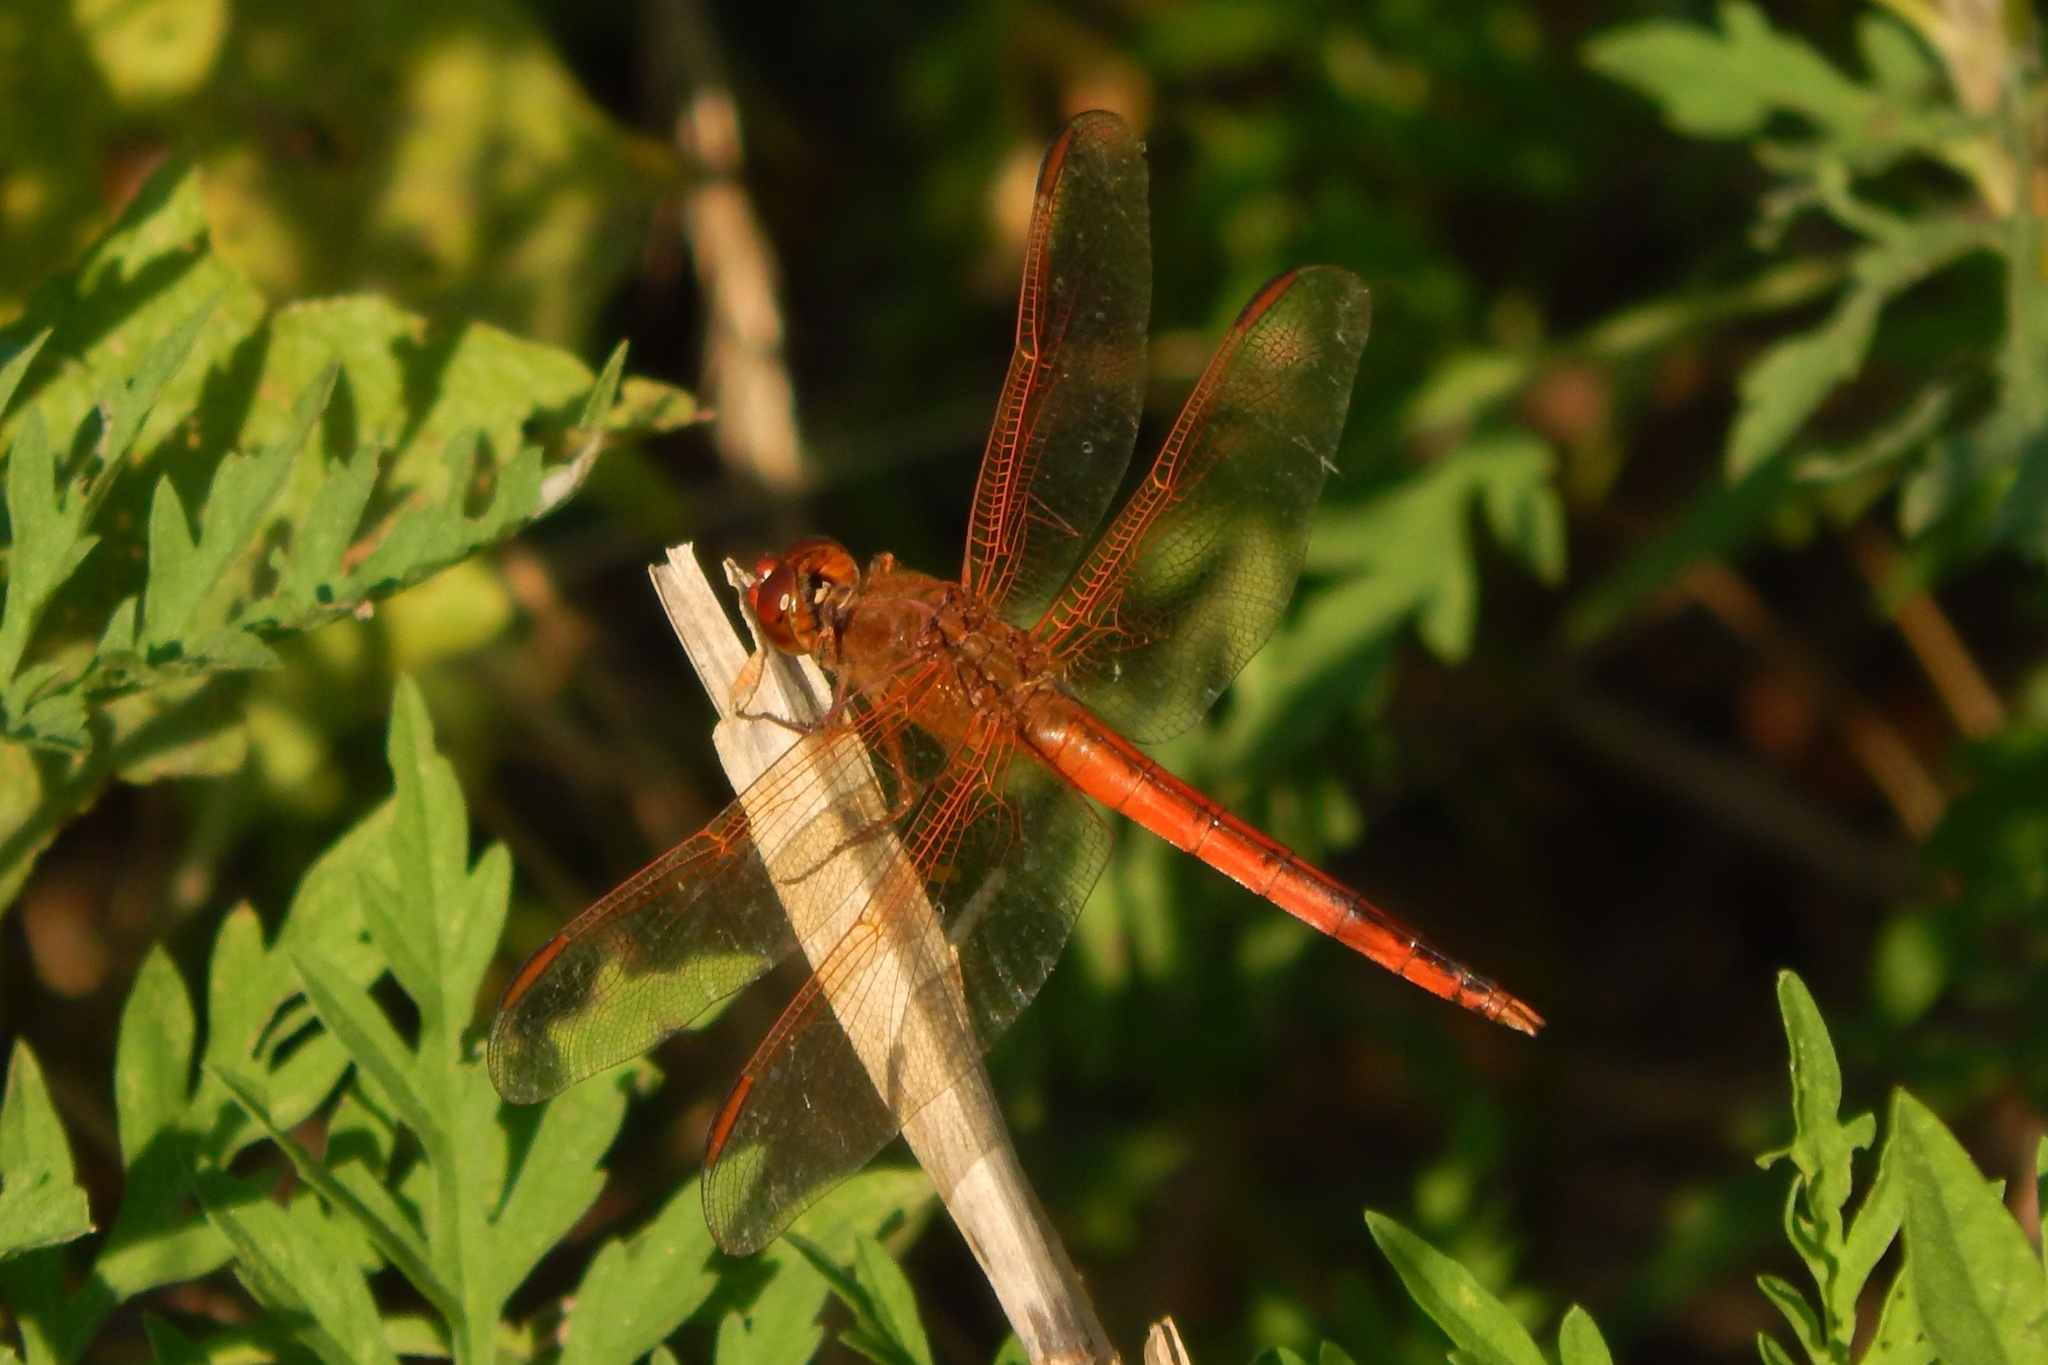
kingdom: Animalia
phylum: Arthropoda
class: Insecta
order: Odonata
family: Libellulidae
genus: Libellula
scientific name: Libellula needhami
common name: Needham's skimmer
